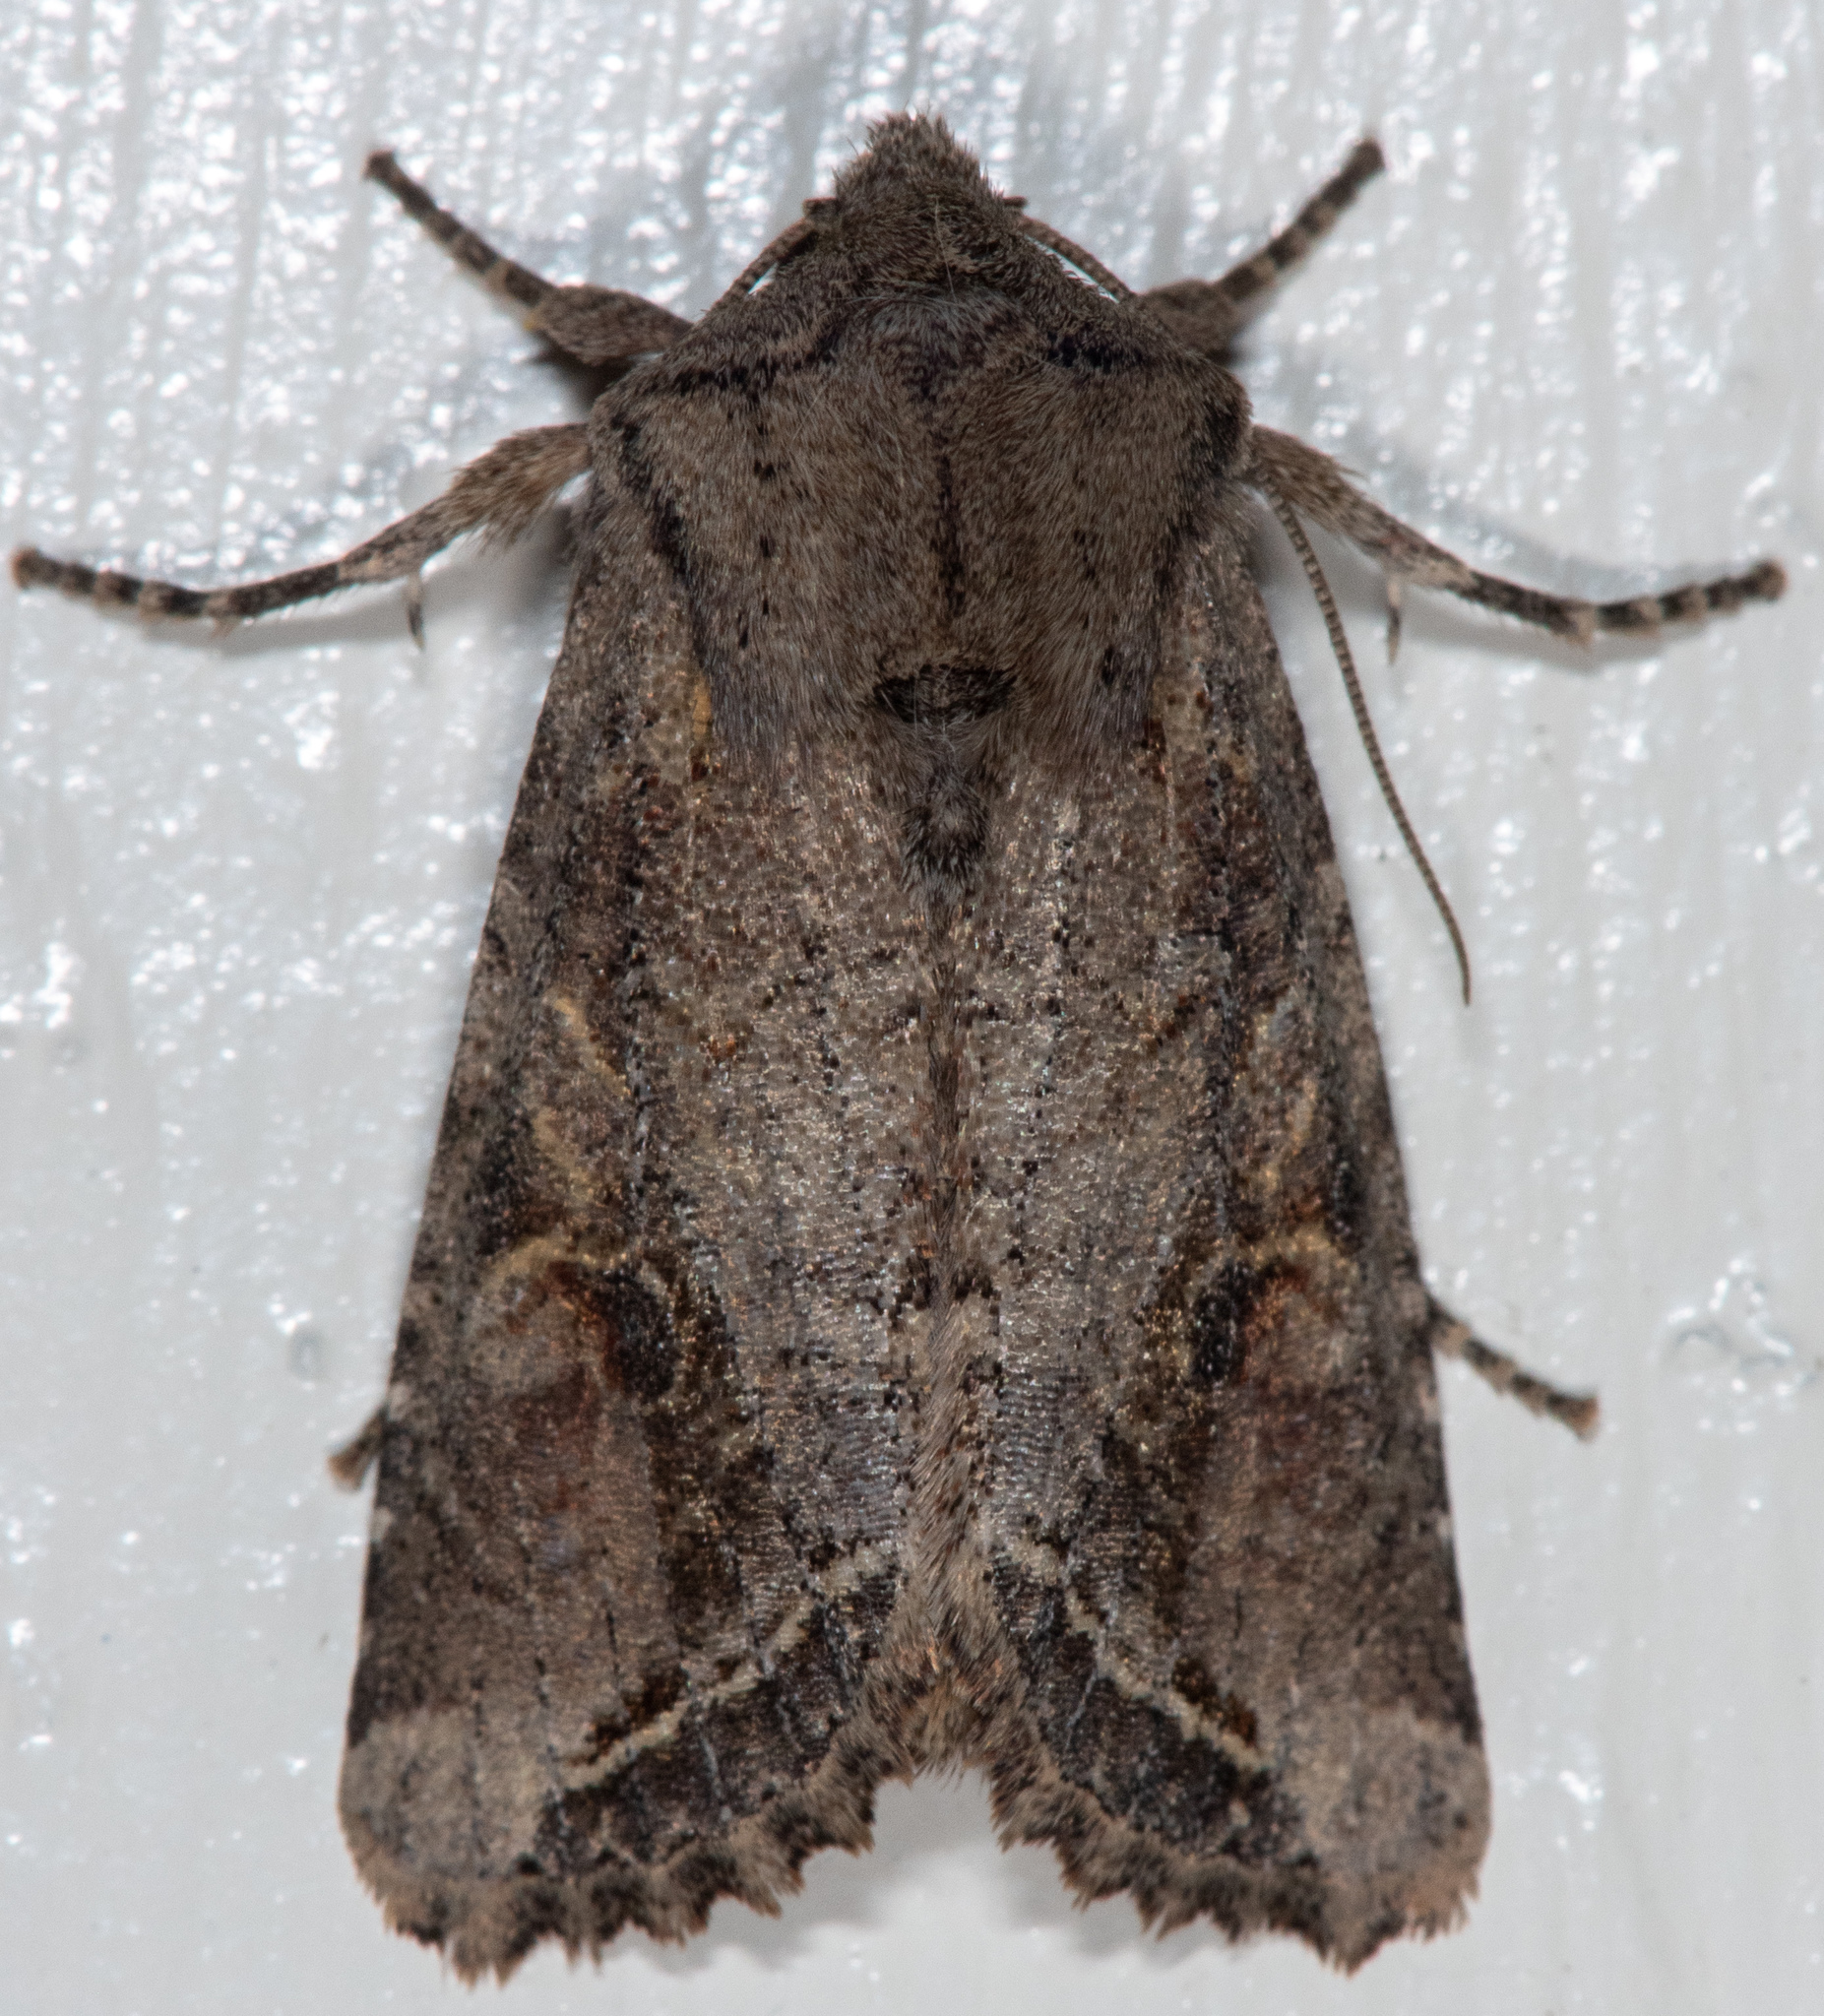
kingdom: Animalia
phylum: Arthropoda
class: Insecta
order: Lepidoptera
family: Noctuidae
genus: Egira
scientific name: Egira perlubens
